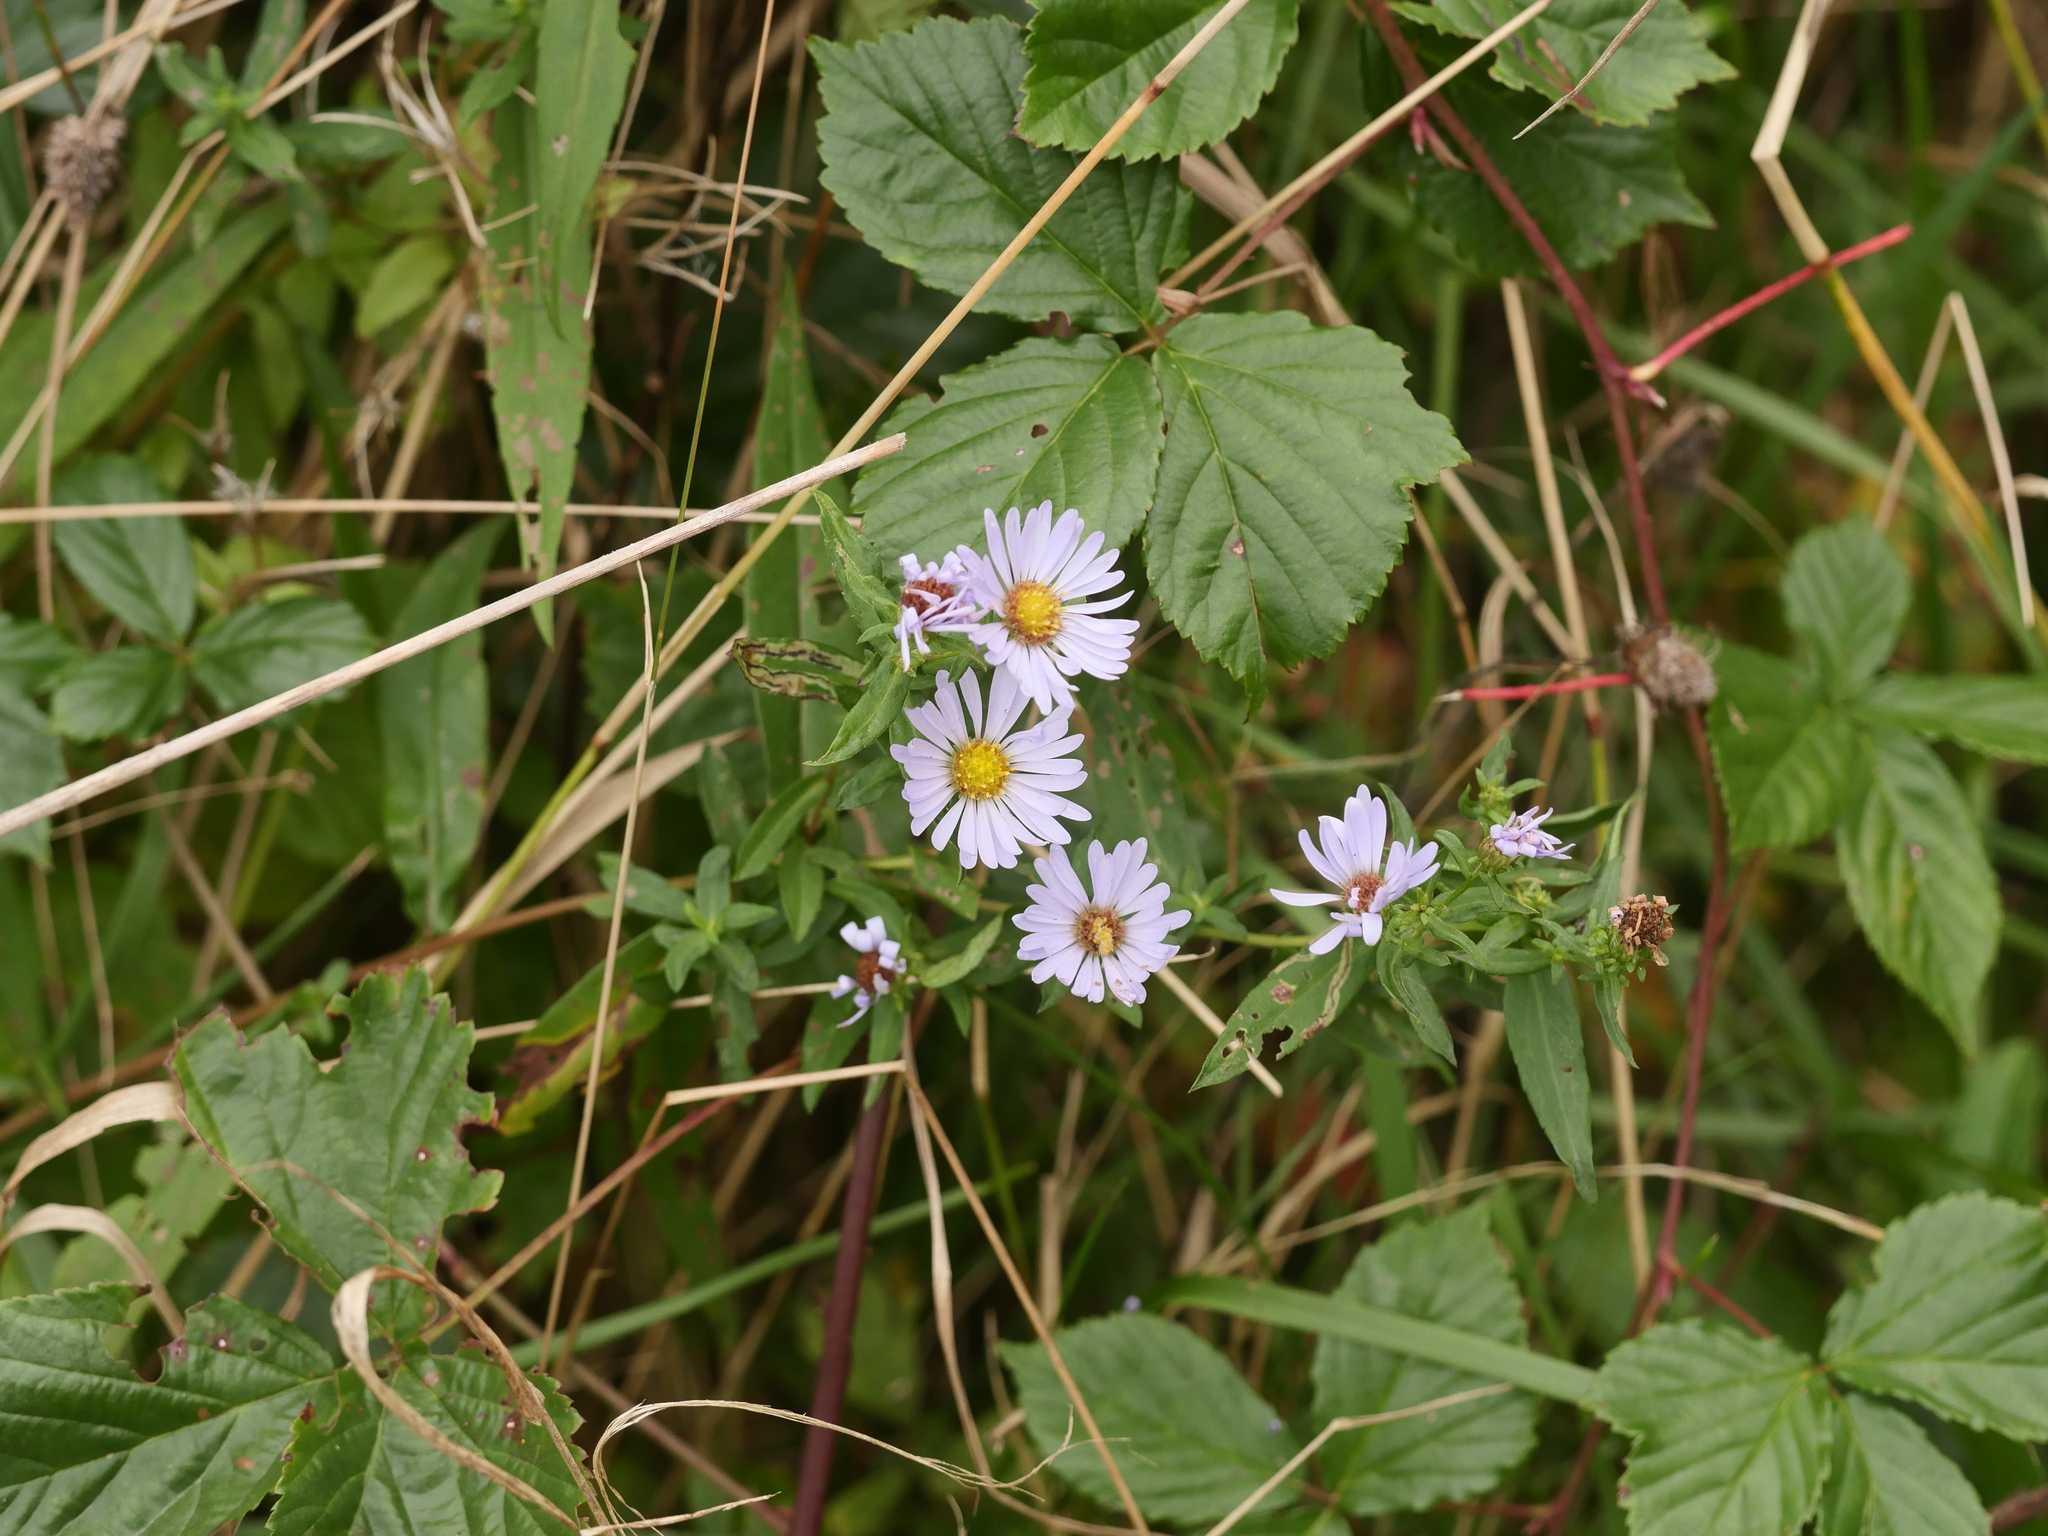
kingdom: Plantae
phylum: Tracheophyta
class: Magnoliopsida
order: Asterales
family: Asteraceae
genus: Symphyotrichum
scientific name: Symphyotrichum novi-belgii
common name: Michaelmas daisy
